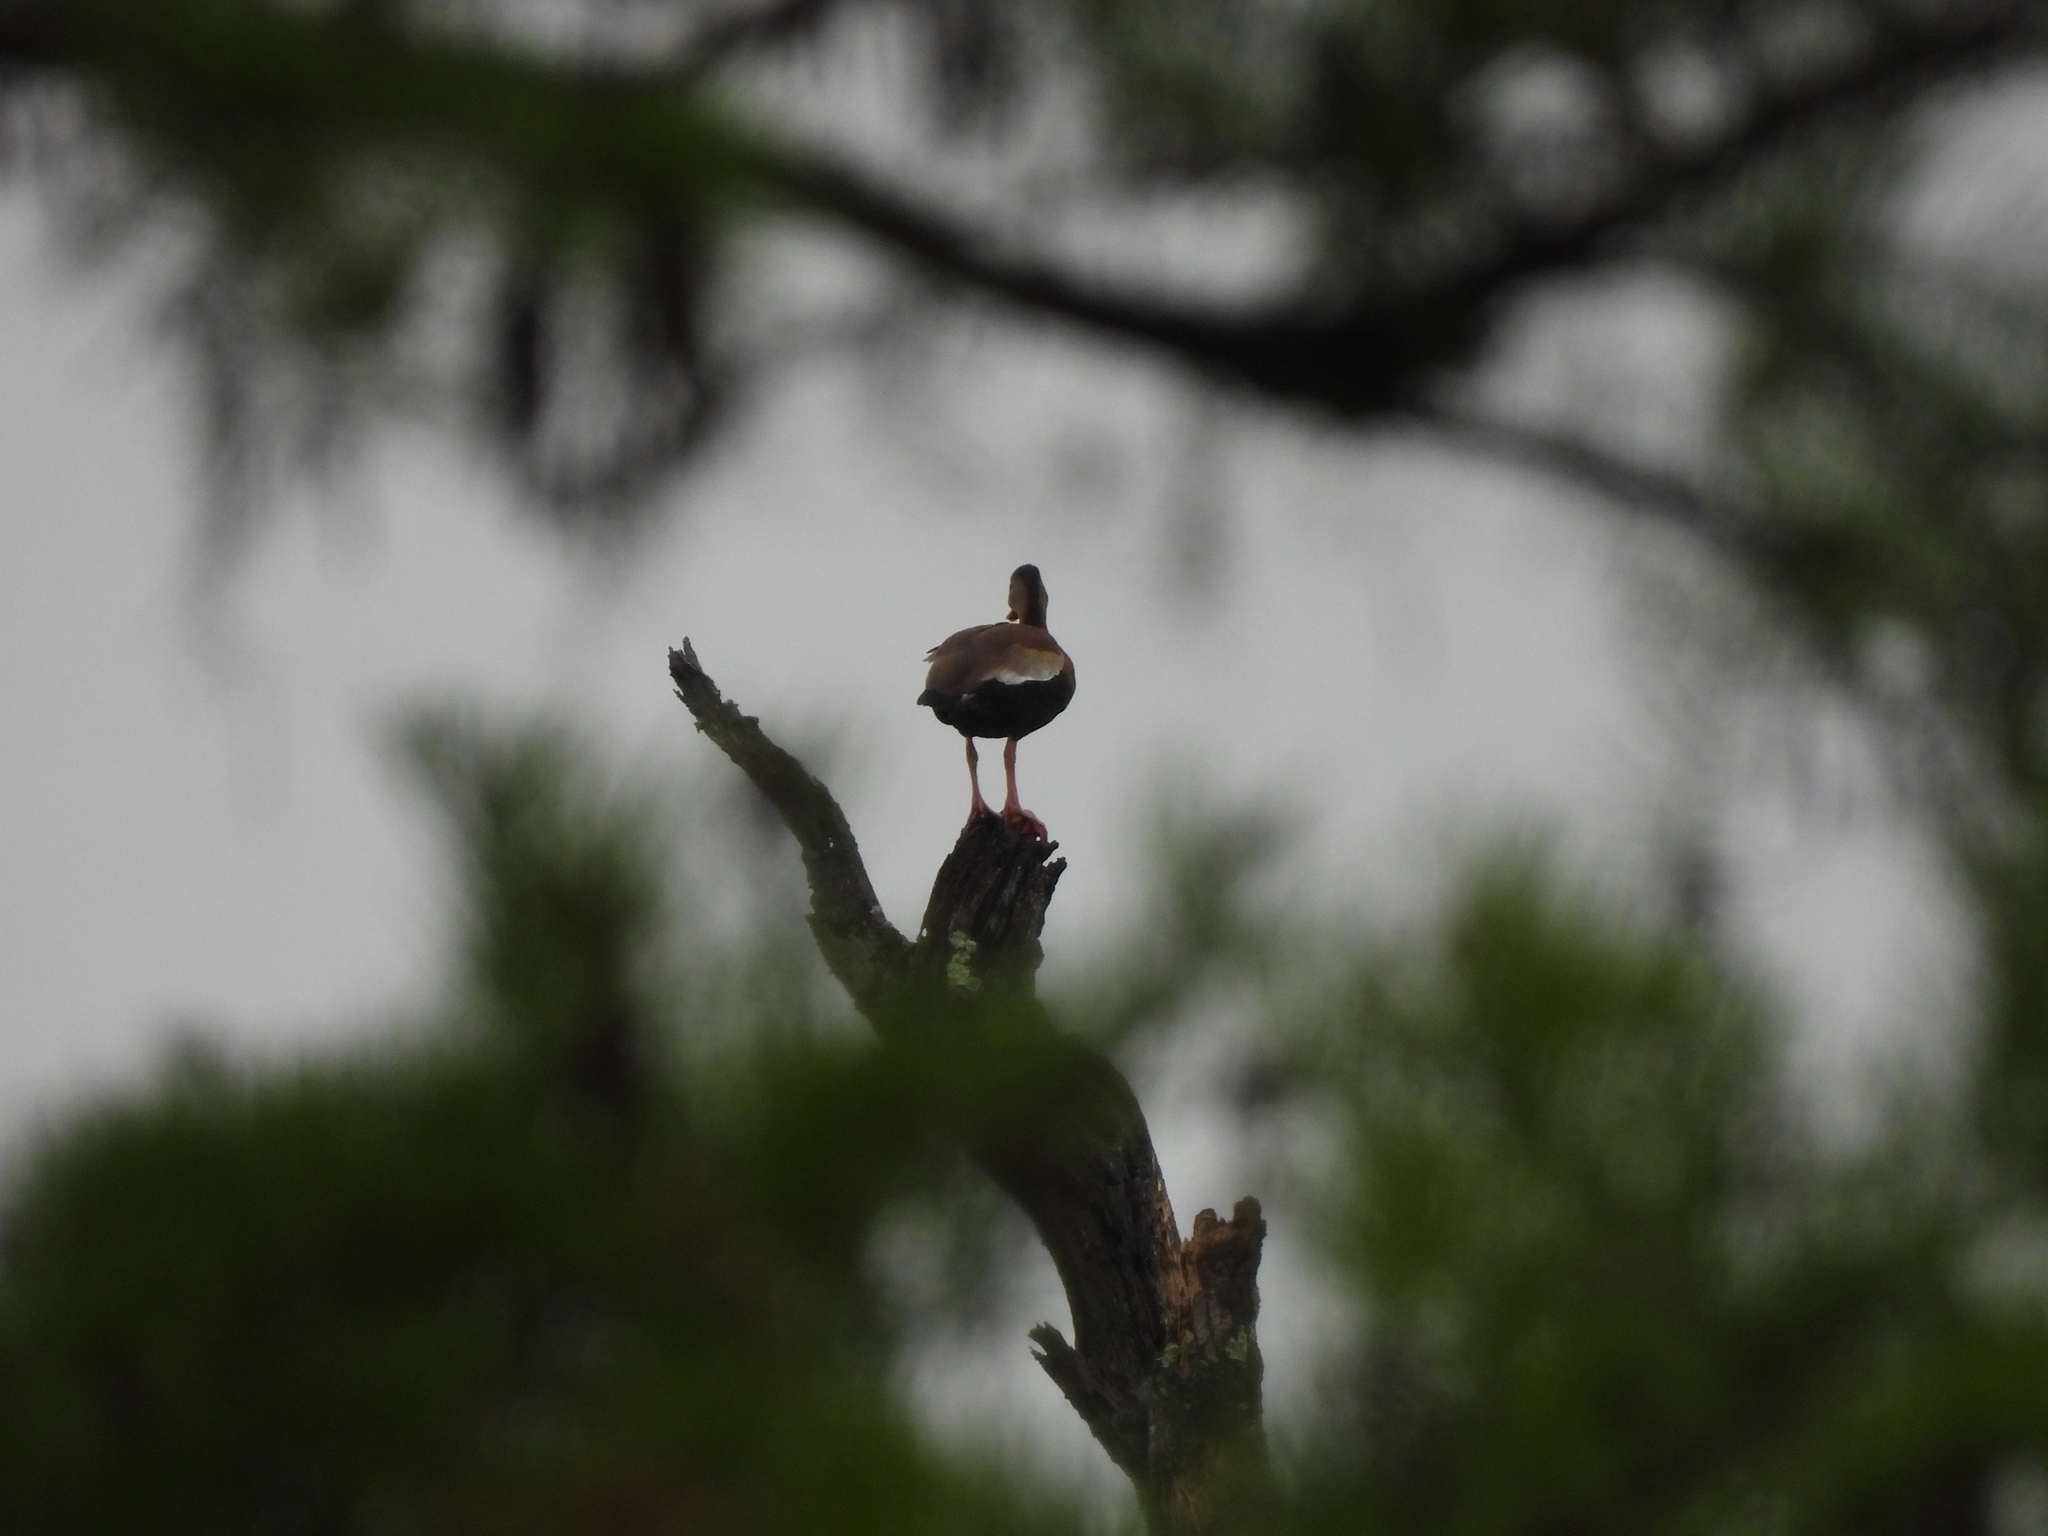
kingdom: Animalia
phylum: Chordata
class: Aves
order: Anseriformes
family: Anatidae
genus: Dendrocygna
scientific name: Dendrocygna autumnalis
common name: Black-bellied whistling duck
